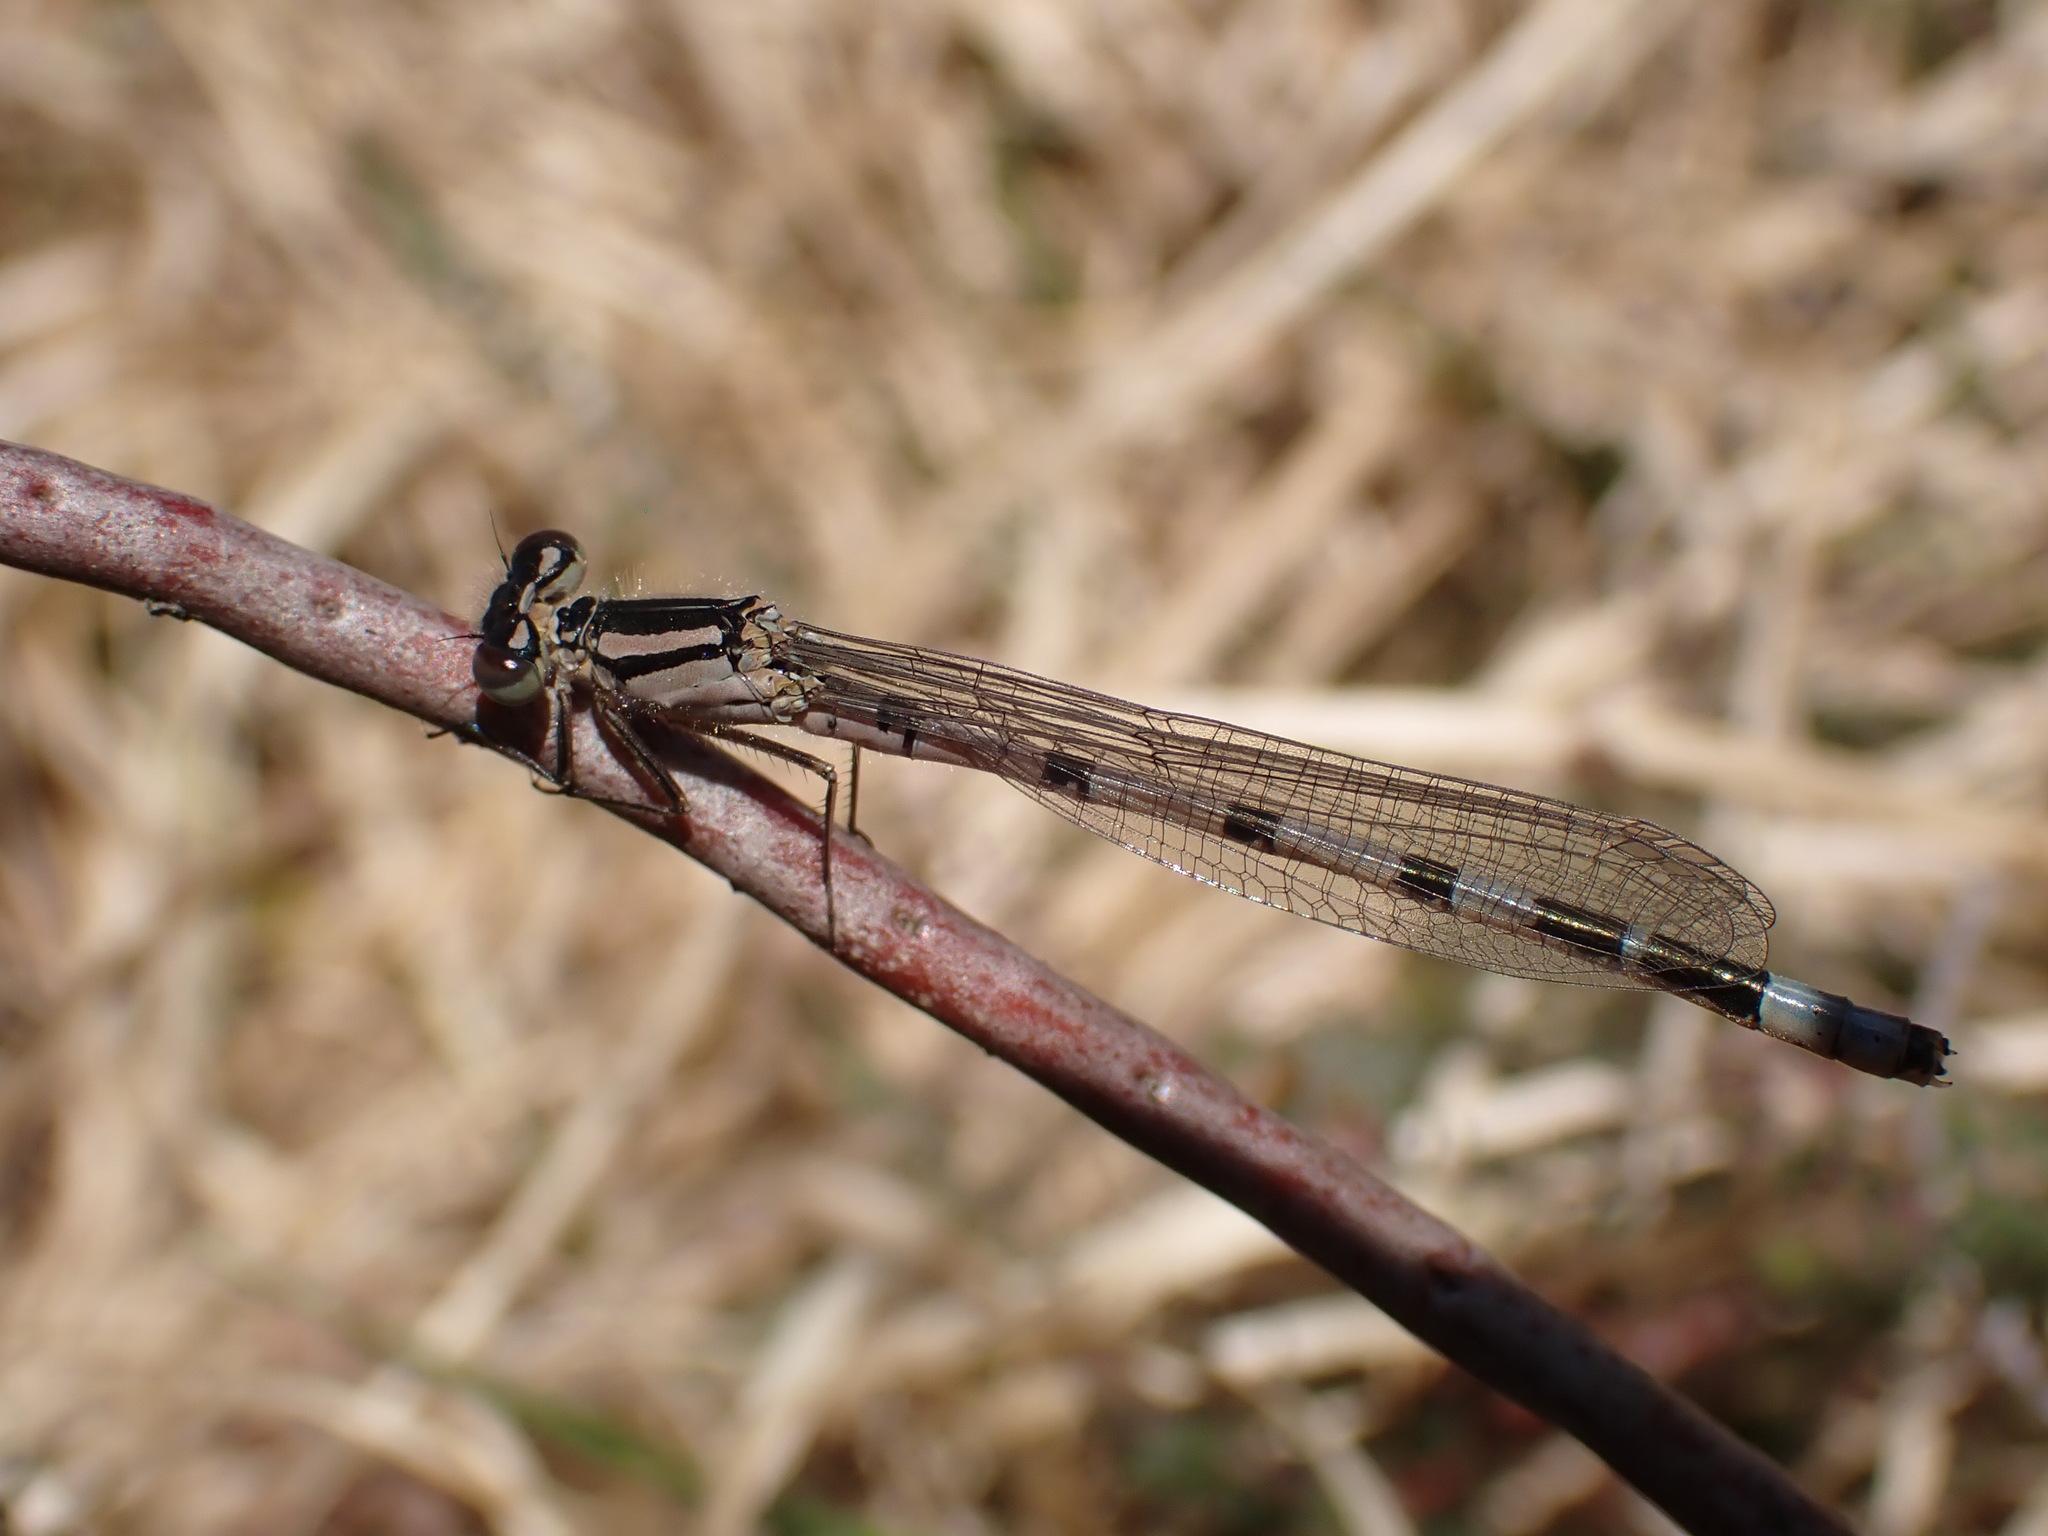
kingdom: Animalia
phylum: Arthropoda
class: Insecta
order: Odonata
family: Coenagrionidae
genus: Enallagma
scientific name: Enallagma cyathigerum
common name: Common blue damselfly
